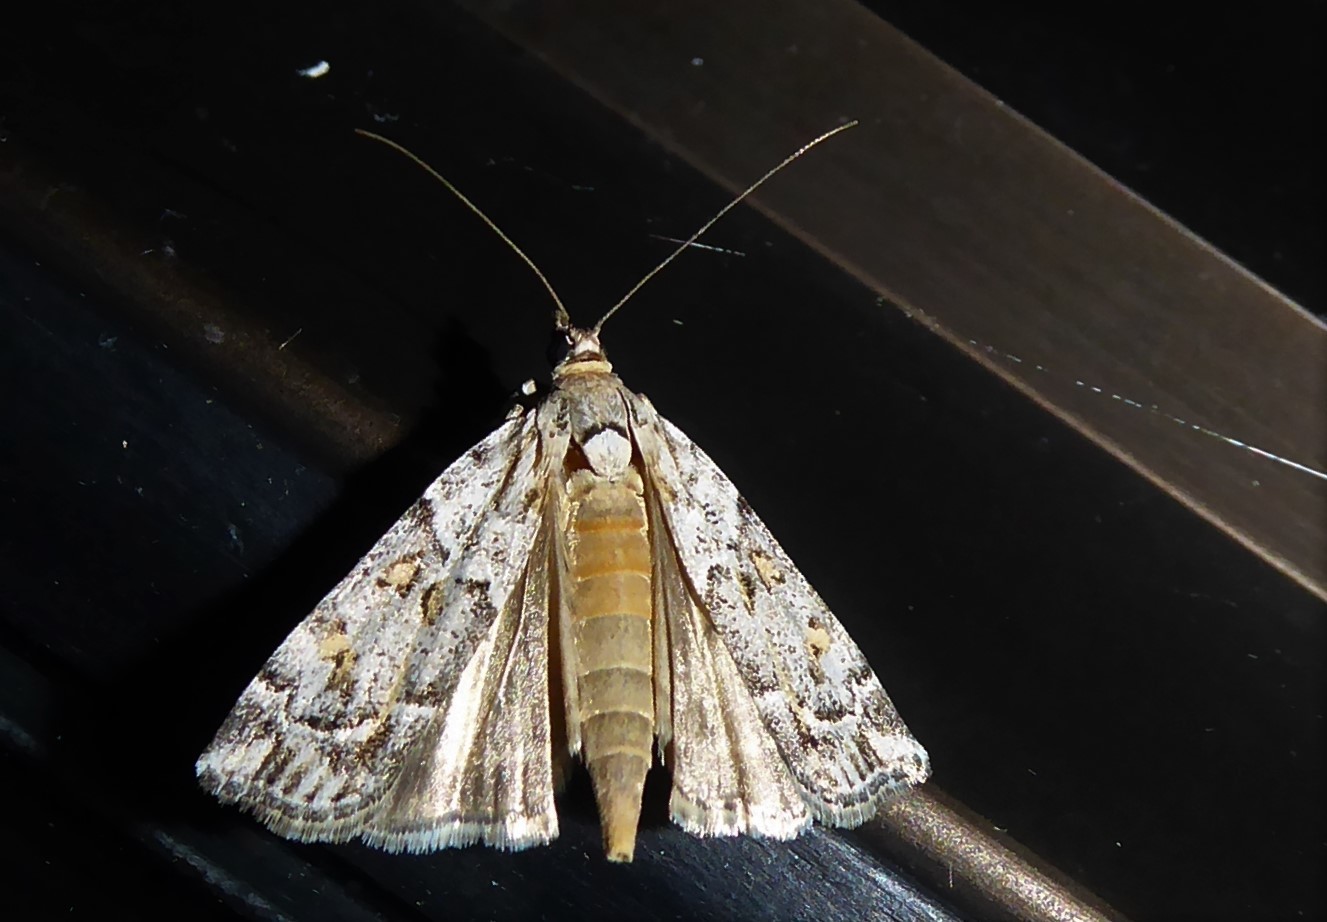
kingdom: Animalia
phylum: Arthropoda
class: Insecta
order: Lepidoptera
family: Crambidae
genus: Eudonia
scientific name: Eudonia diphtheralis
